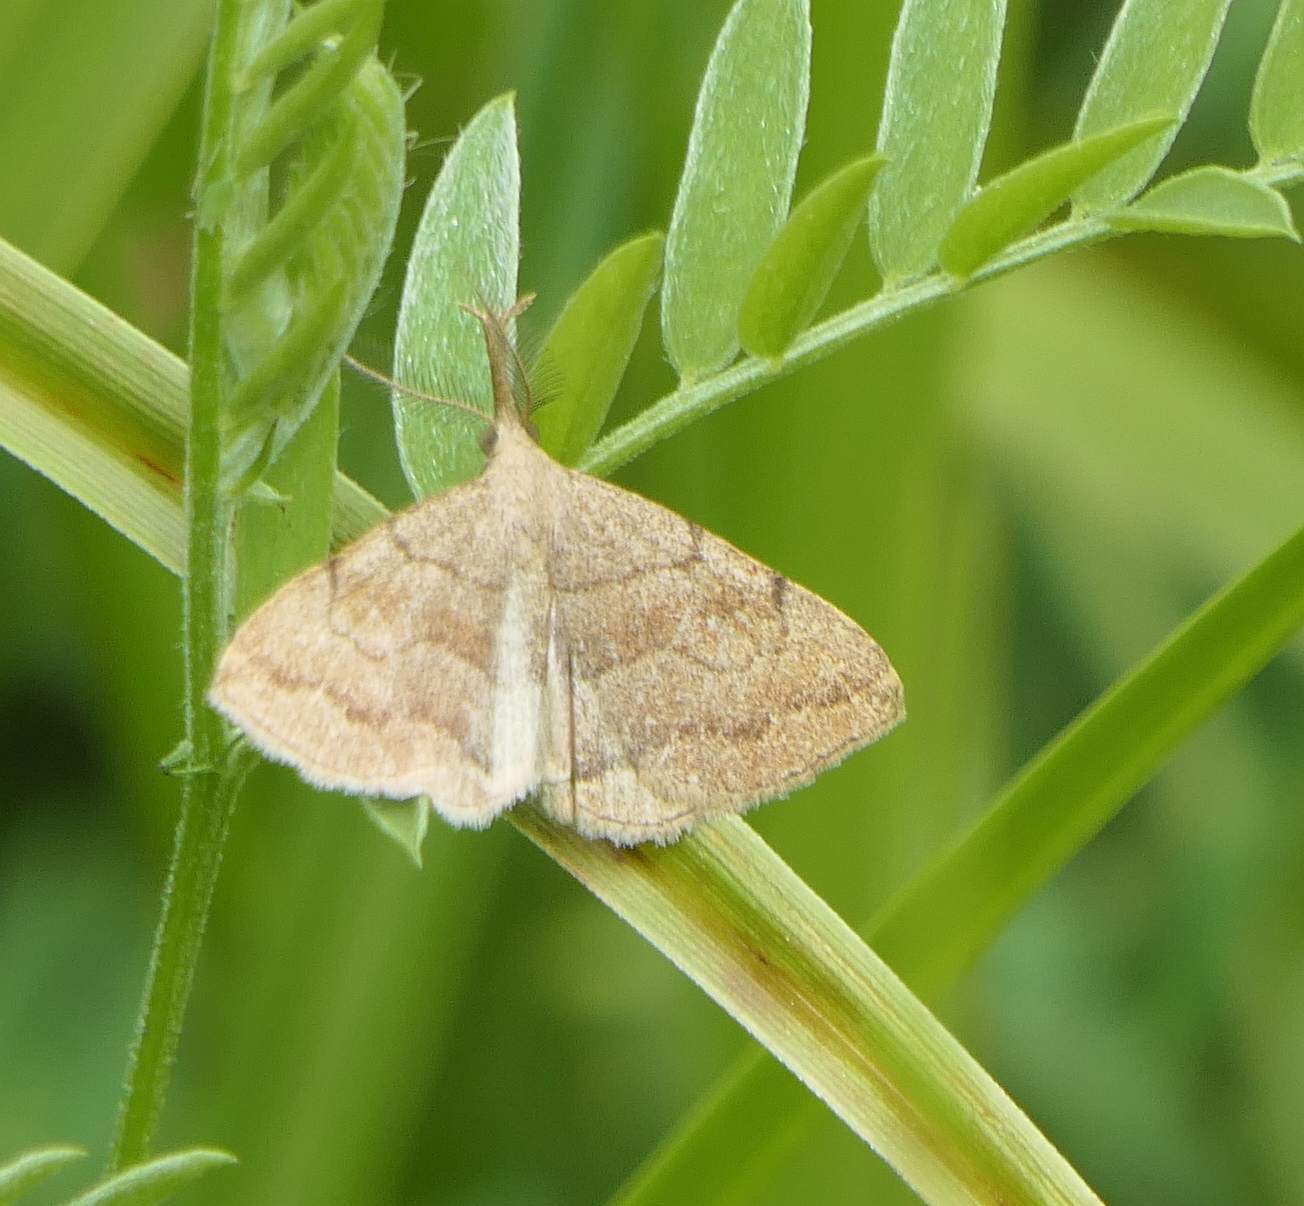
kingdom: Animalia
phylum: Arthropoda
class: Insecta
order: Lepidoptera
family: Erebidae
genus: Phalaenostola
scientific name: Phalaenostola metonalis
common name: Pale phalaenostola moth
